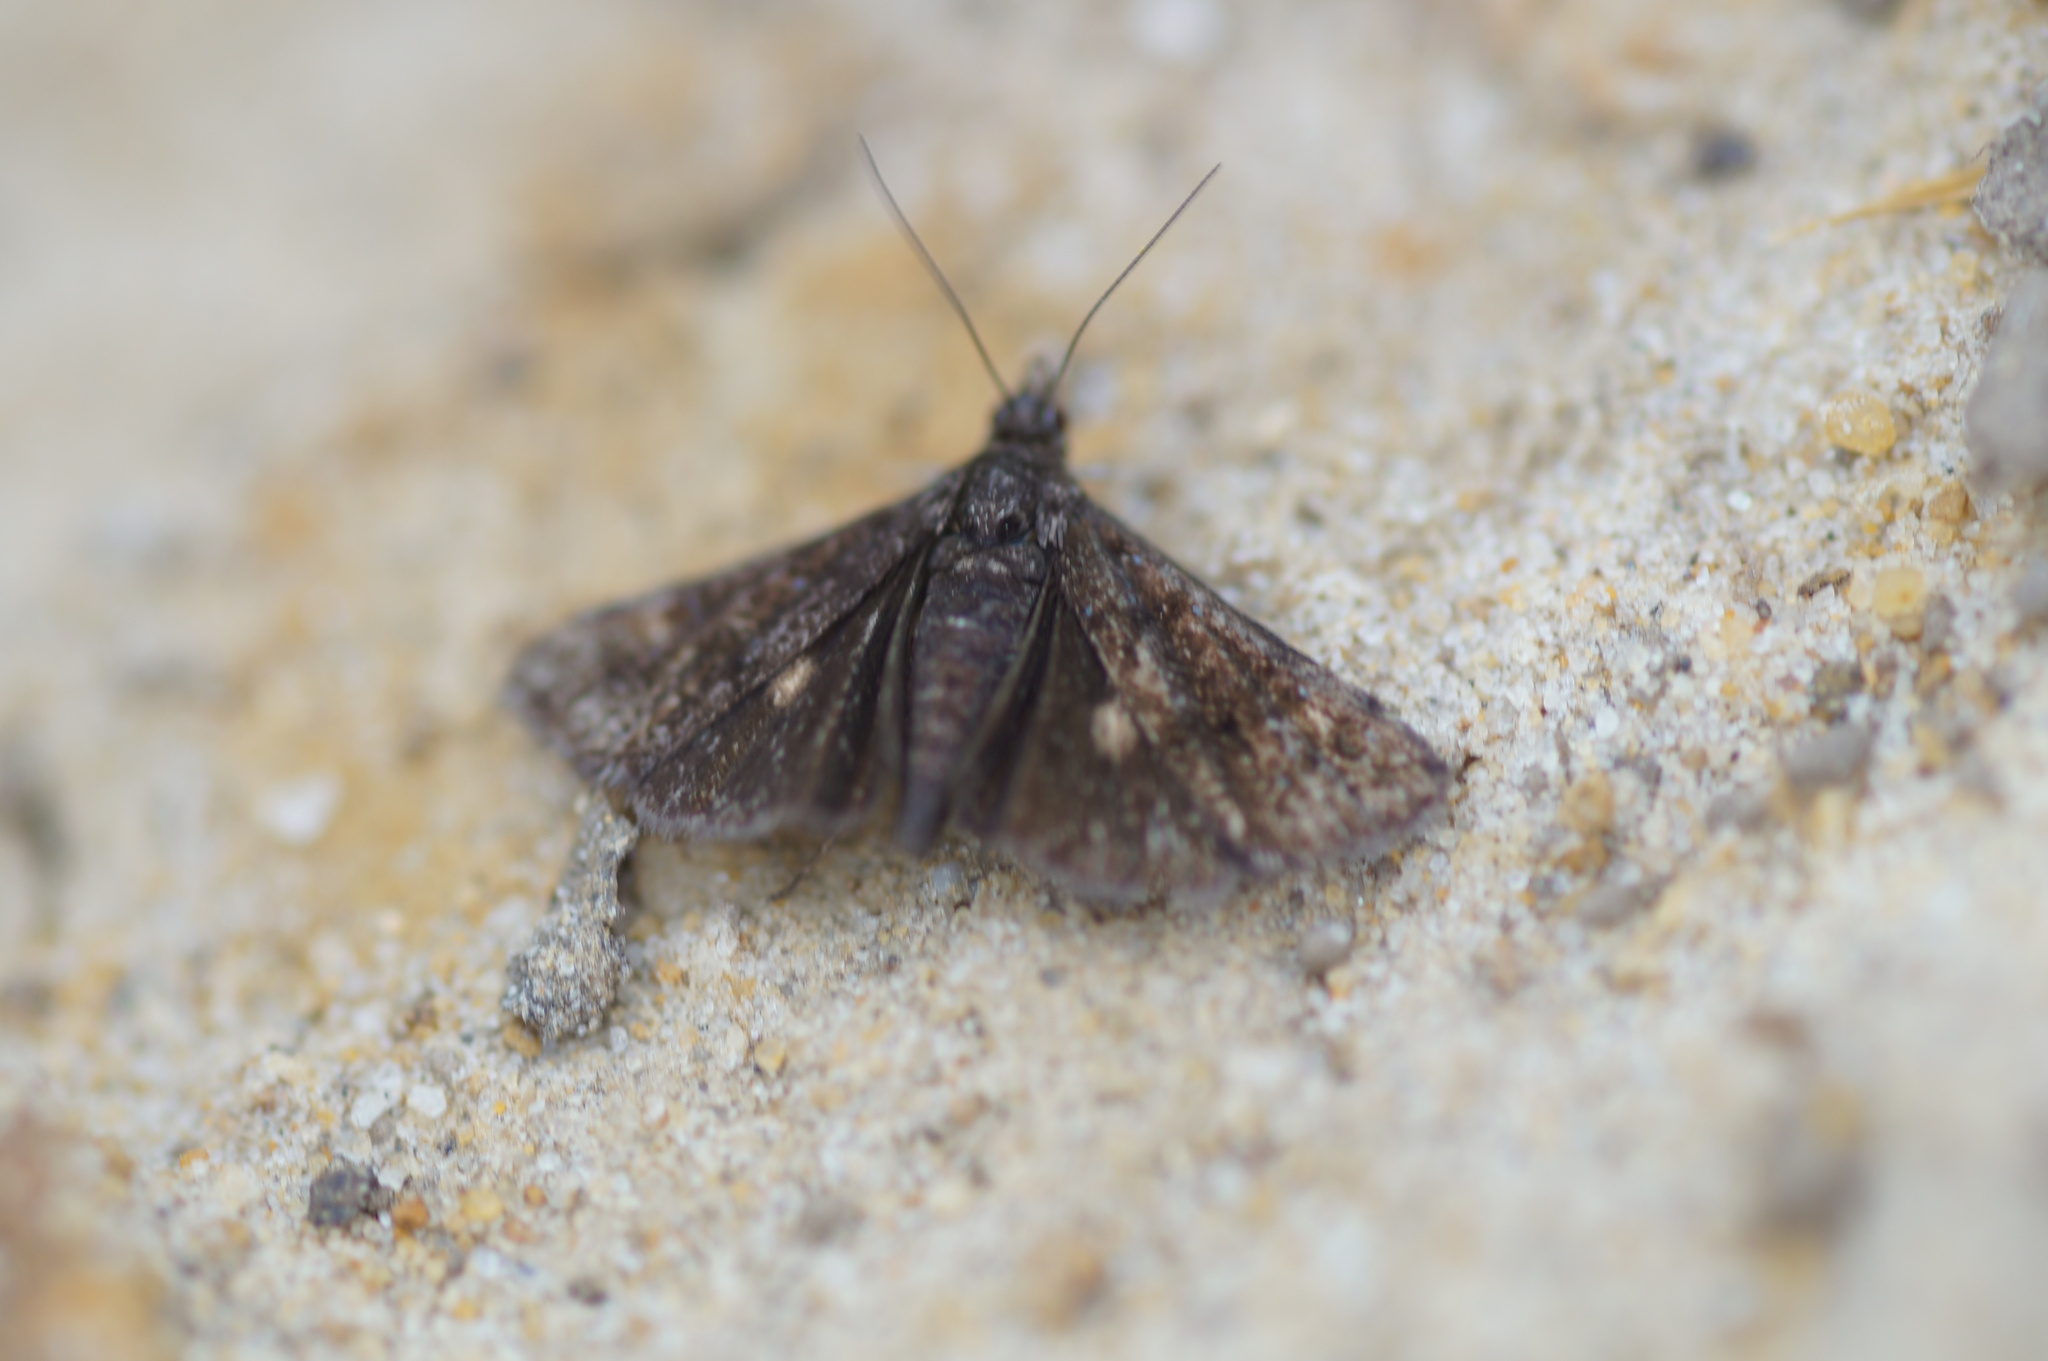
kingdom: Animalia
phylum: Arthropoda
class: Insecta
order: Lepidoptera
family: Crambidae
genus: Heliothela
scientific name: Heliothela wulfeniana
